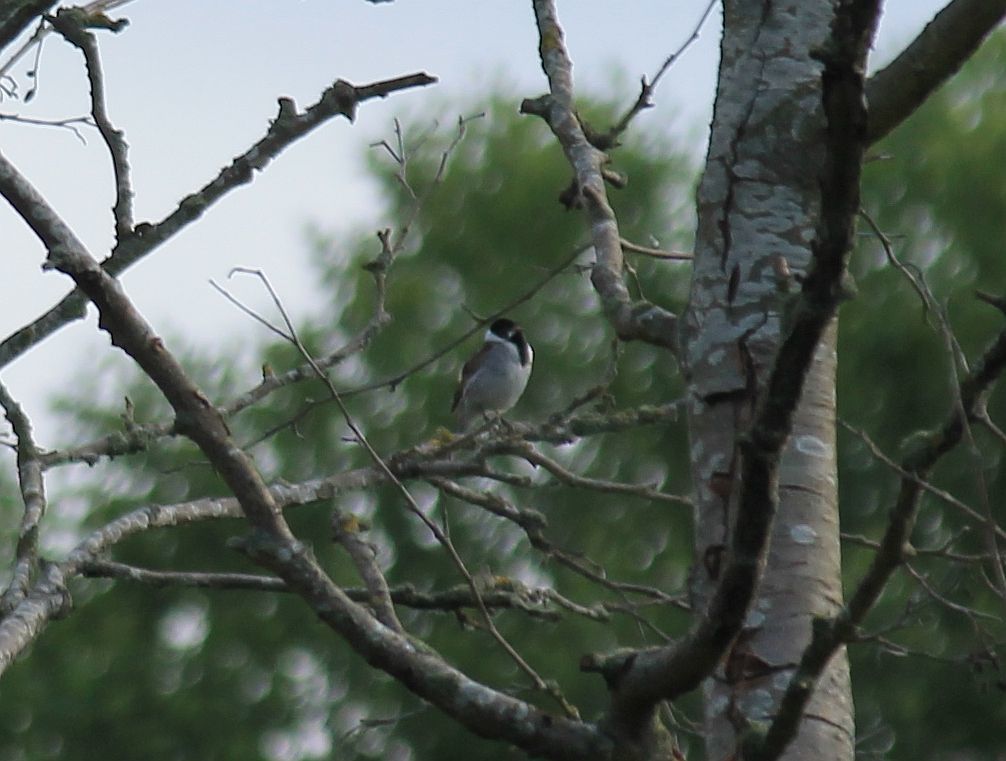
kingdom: Animalia
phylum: Chordata
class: Aves
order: Passeriformes
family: Emberizidae
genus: Emberiza
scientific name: Emberiza schoeniclus
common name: Reed bunting
